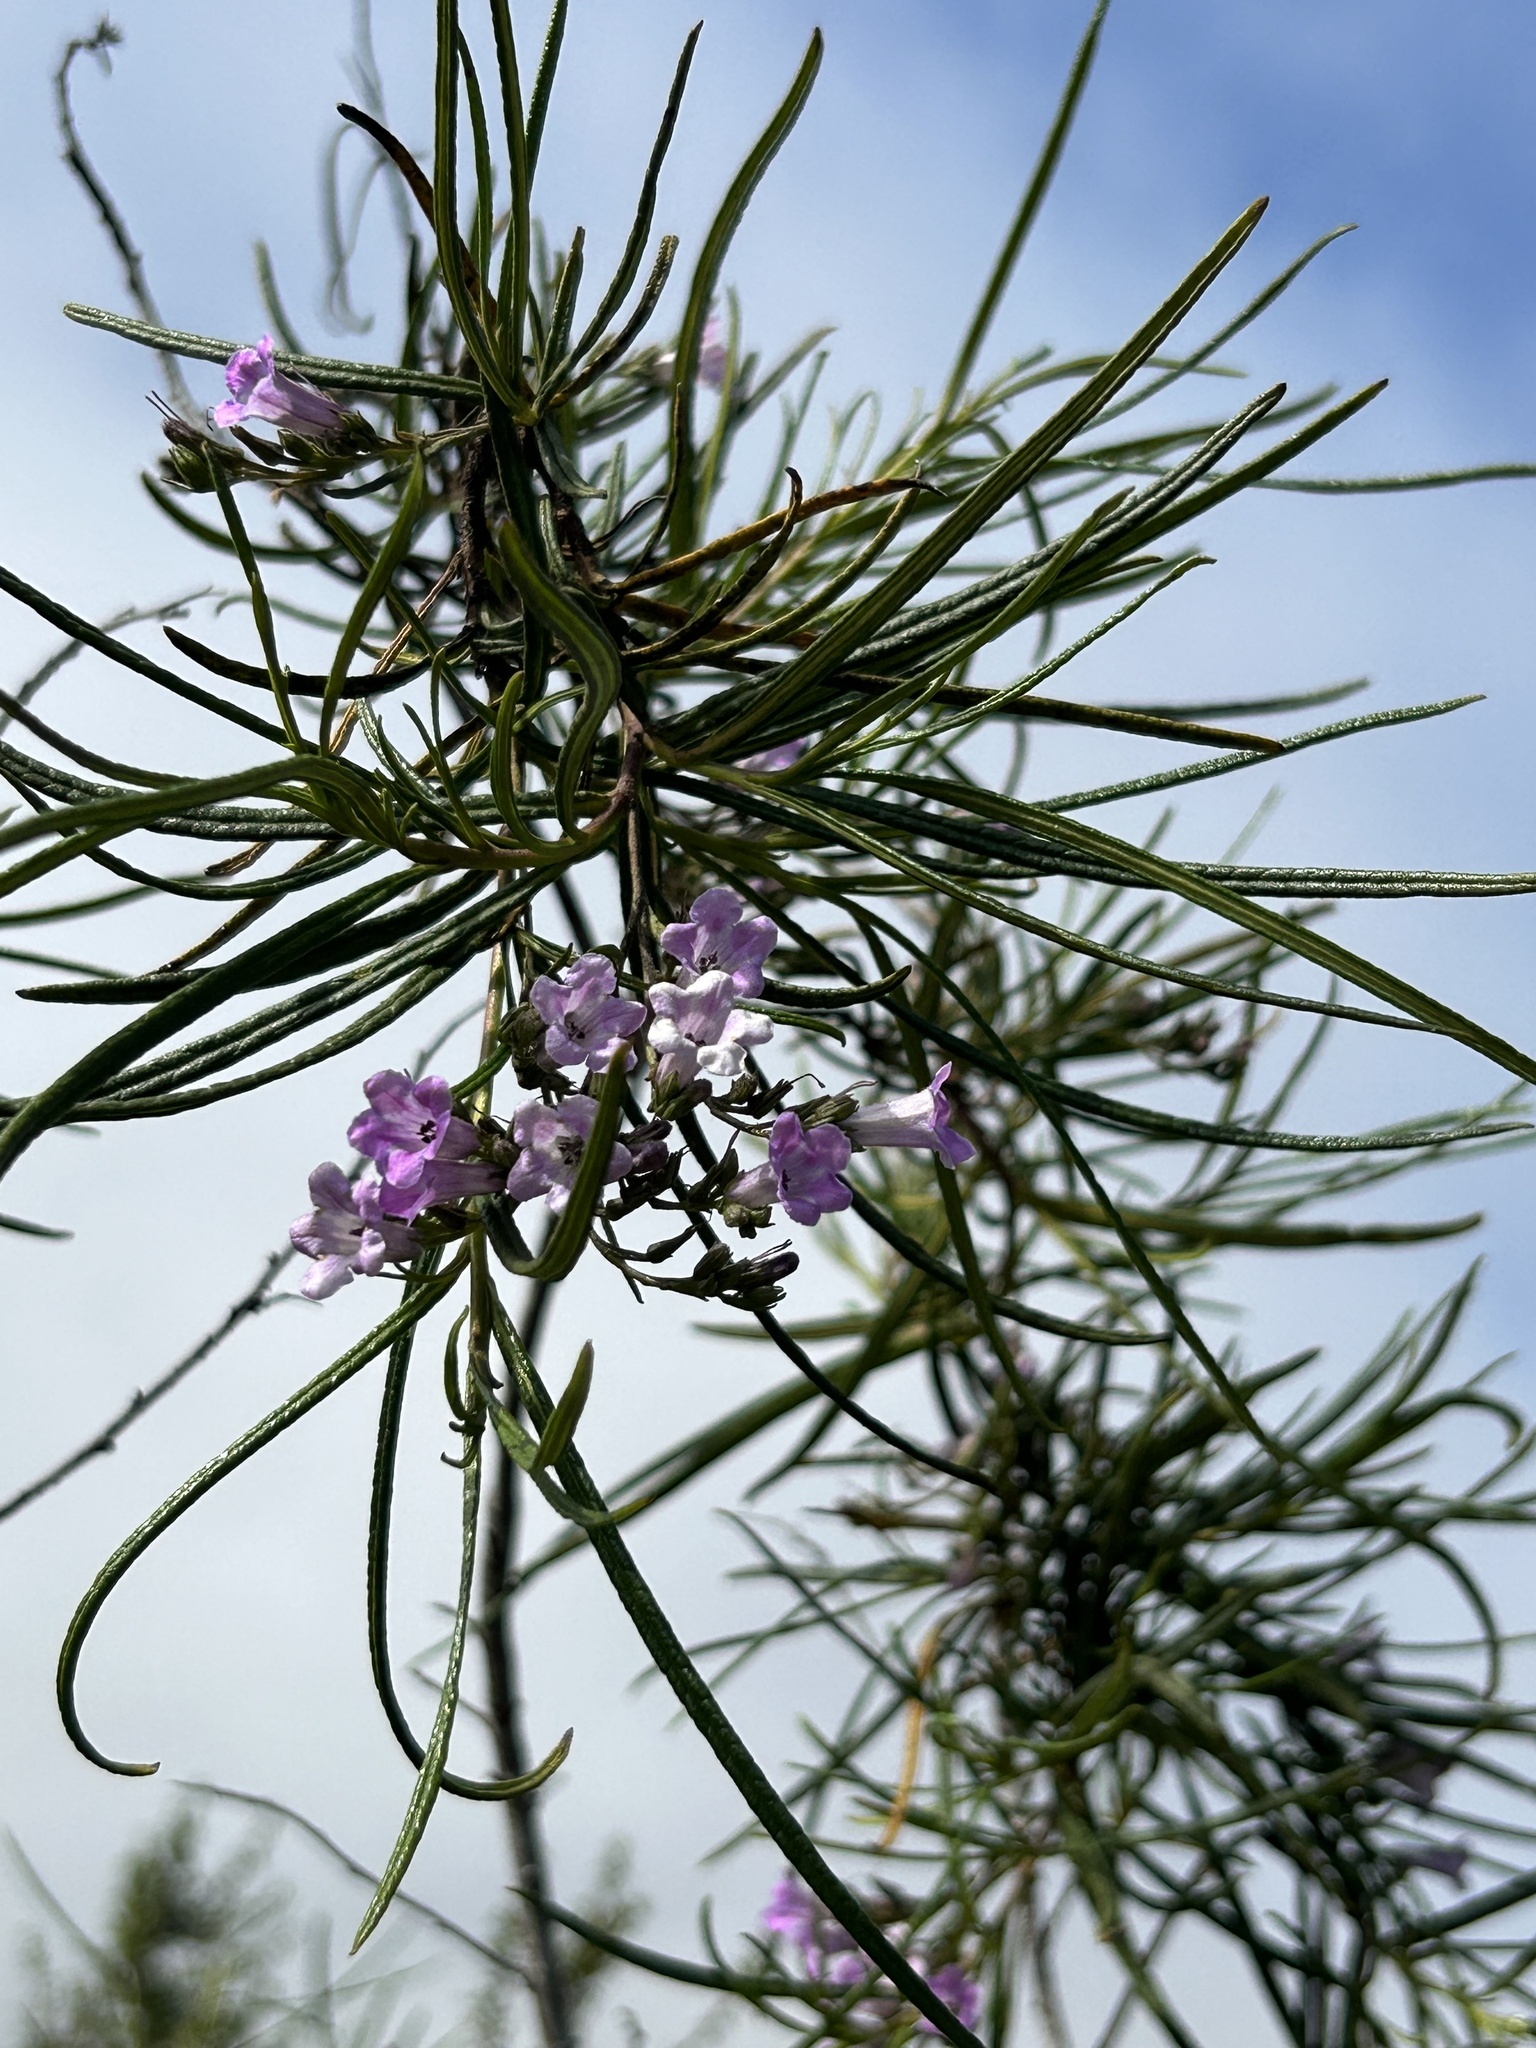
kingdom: Plantae
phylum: Tracheophyta
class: Magnoliopsida
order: Boraginales
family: Namaceae
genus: Eriodictyon
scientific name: Eriodictyon altissimum
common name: Indian knob mountain balm
